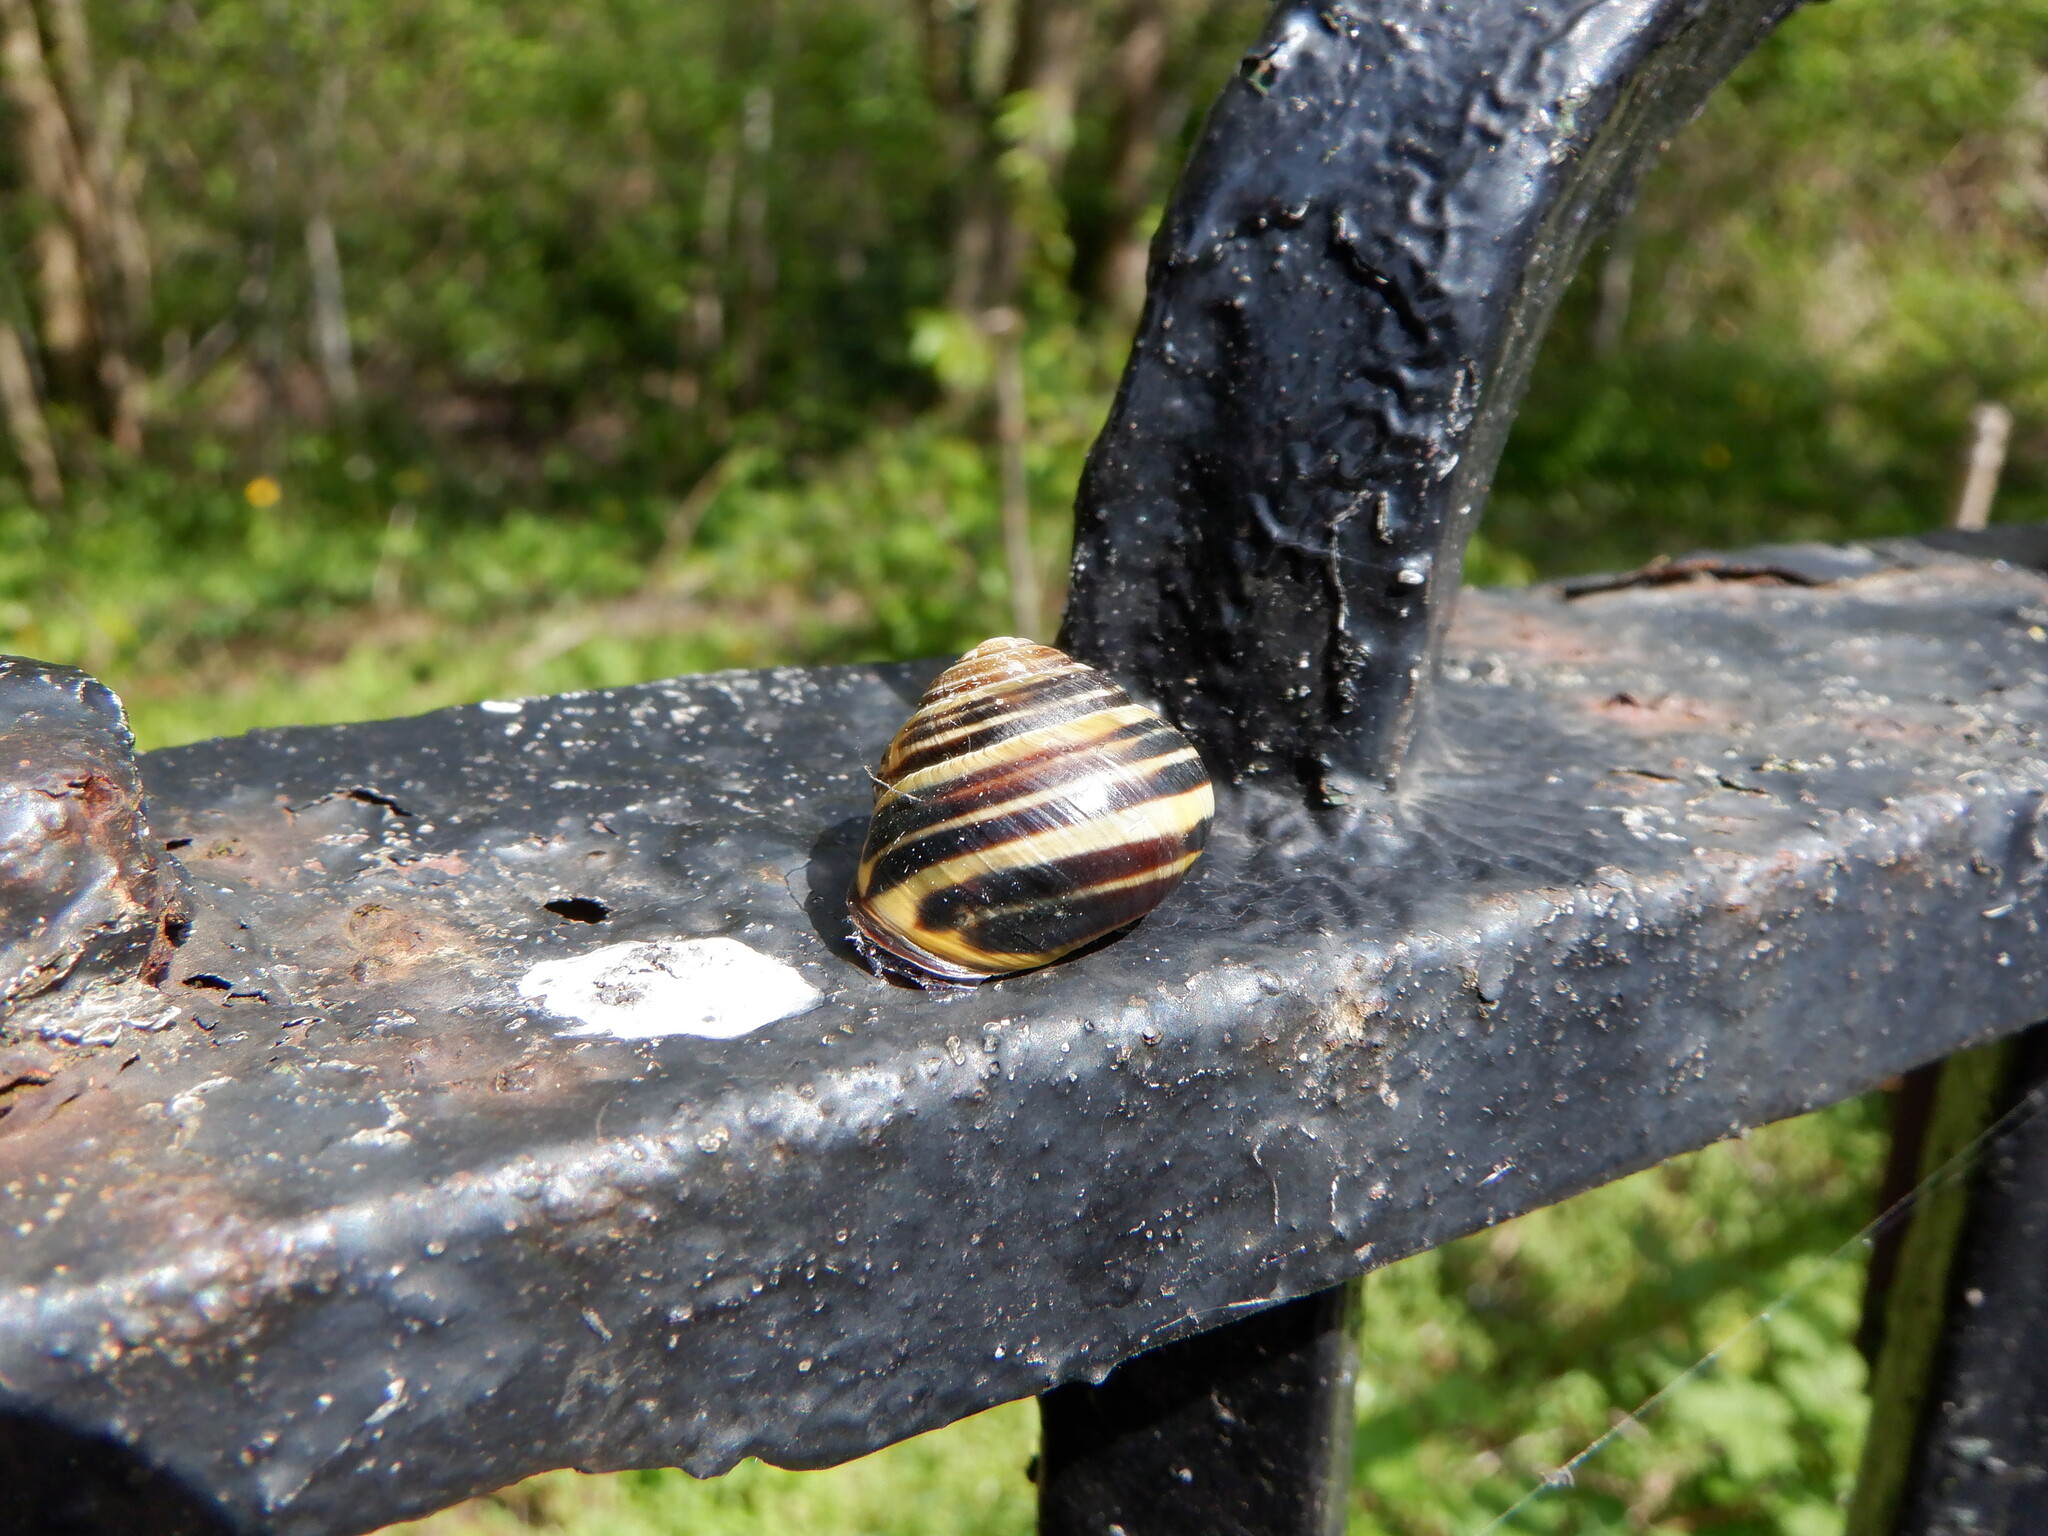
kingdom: Animalia
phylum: Mollusca
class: Gastropoda
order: Stylommatophora
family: Helicidae
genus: Cepaea
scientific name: Cepaea nemoralis
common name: Grovesnail
